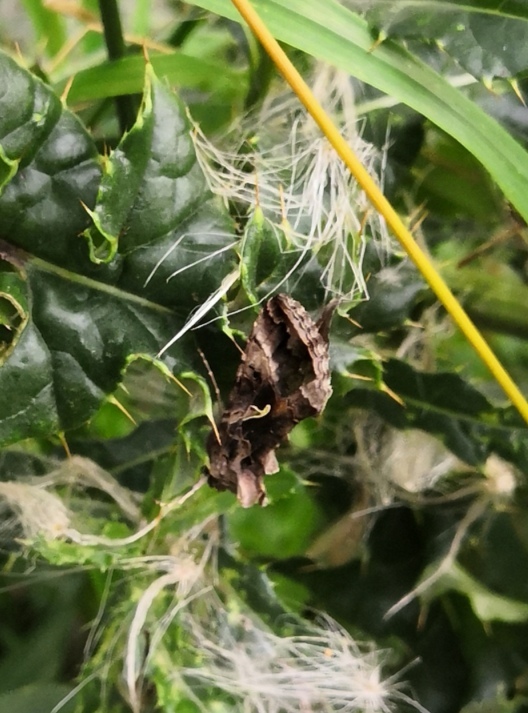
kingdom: Animalia
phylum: Arthropoda
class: Insecta
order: Lepidoptera
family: Noctuidae
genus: Autographa
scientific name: Autographa gamma
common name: Silver y
